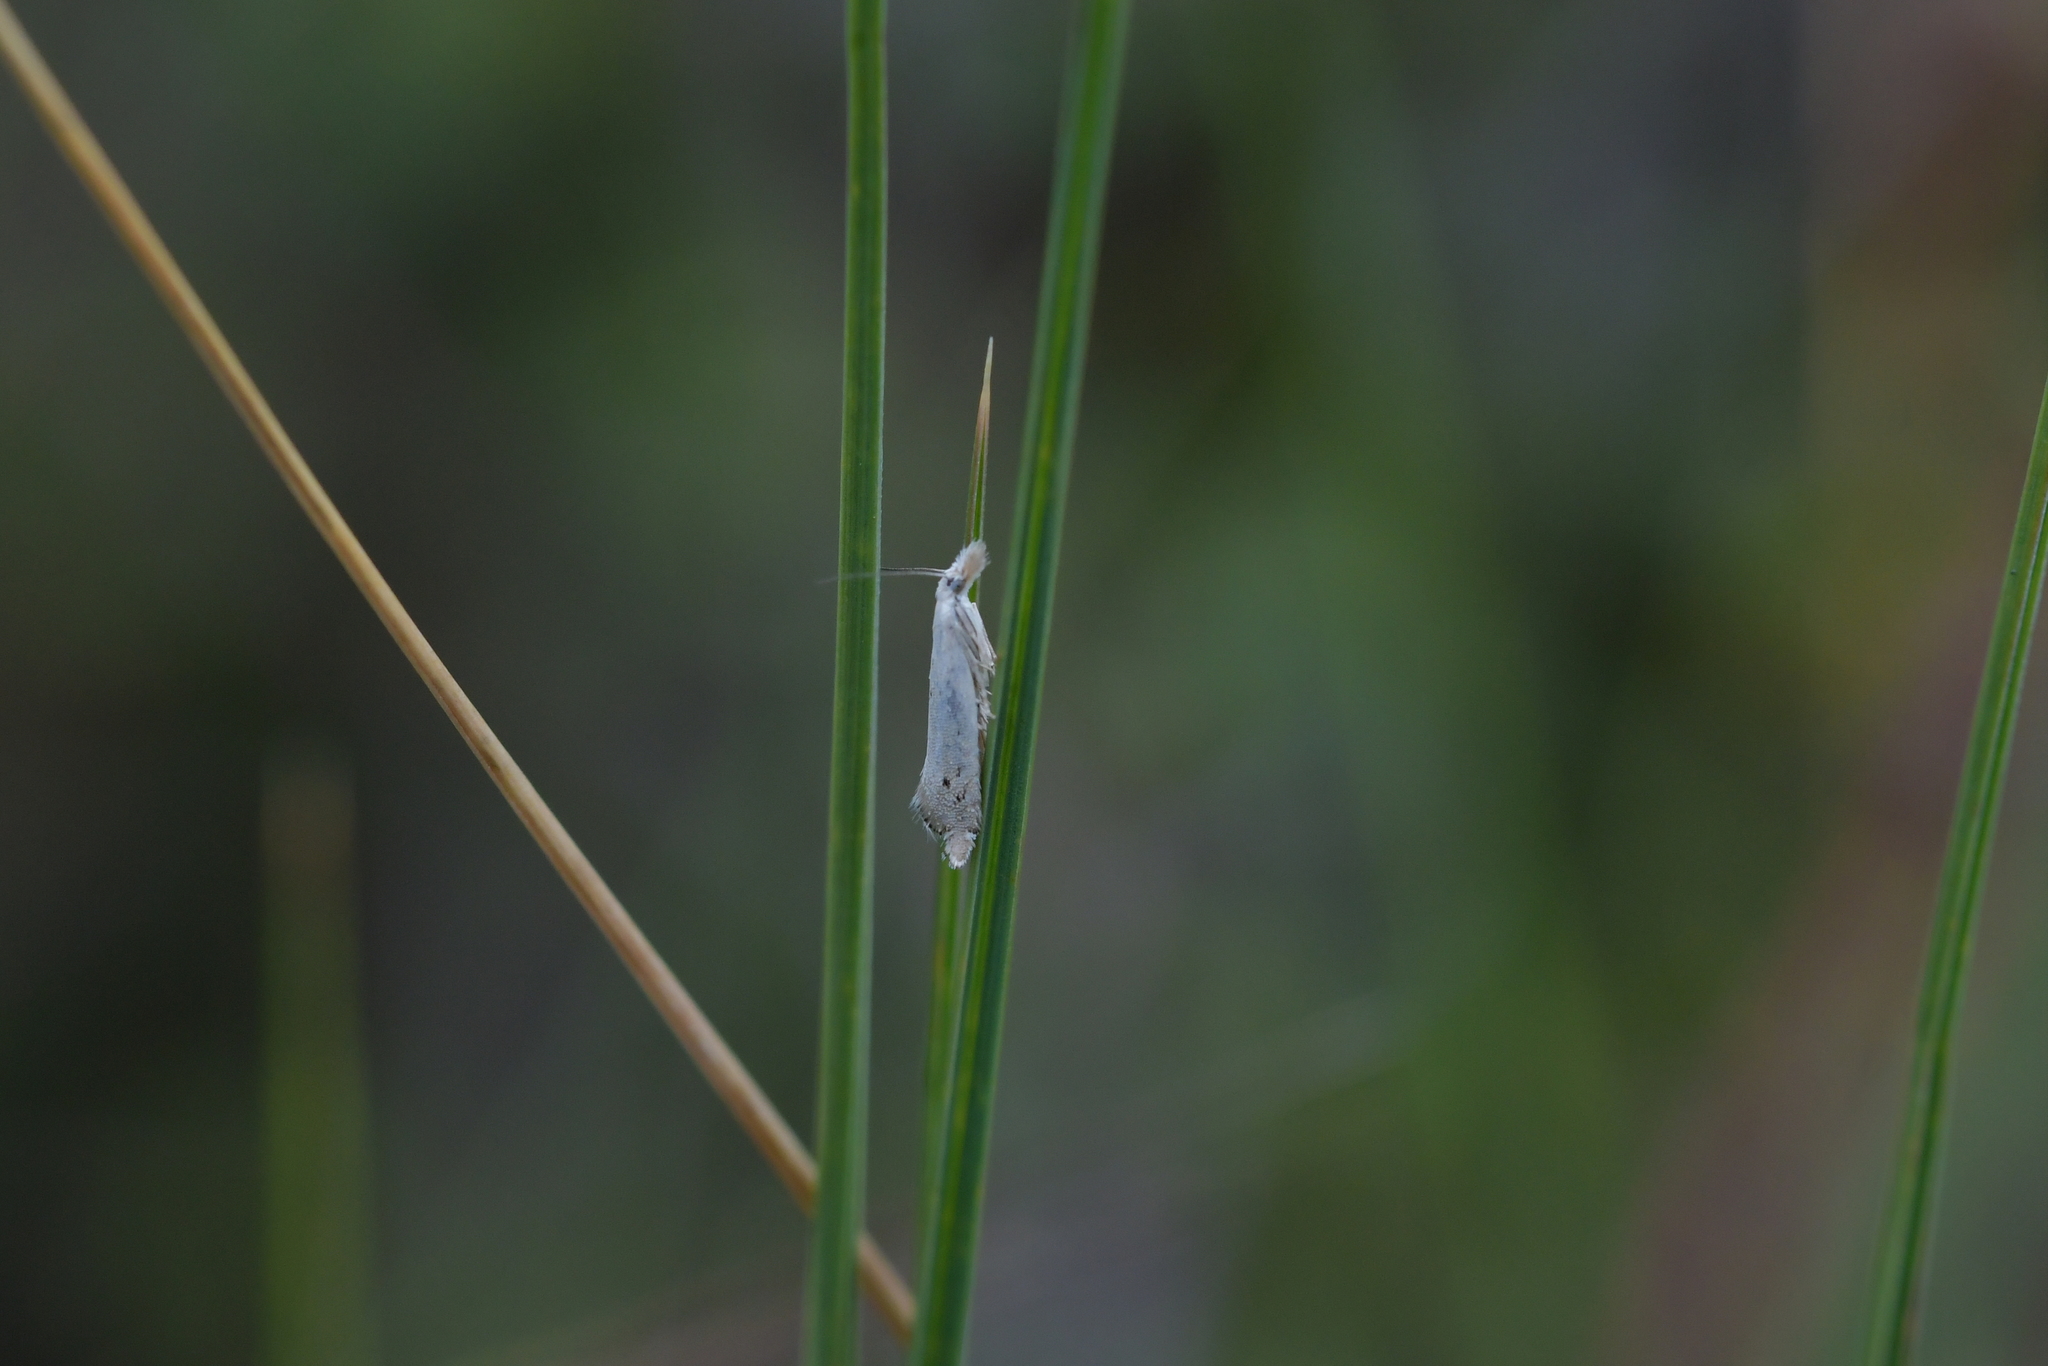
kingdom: Animalia
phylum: Arthropoda
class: Insecta
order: Lepidoptera
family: Glyphipterigidae
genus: Glyphipterix
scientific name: Glyphipterix achlyoessa
